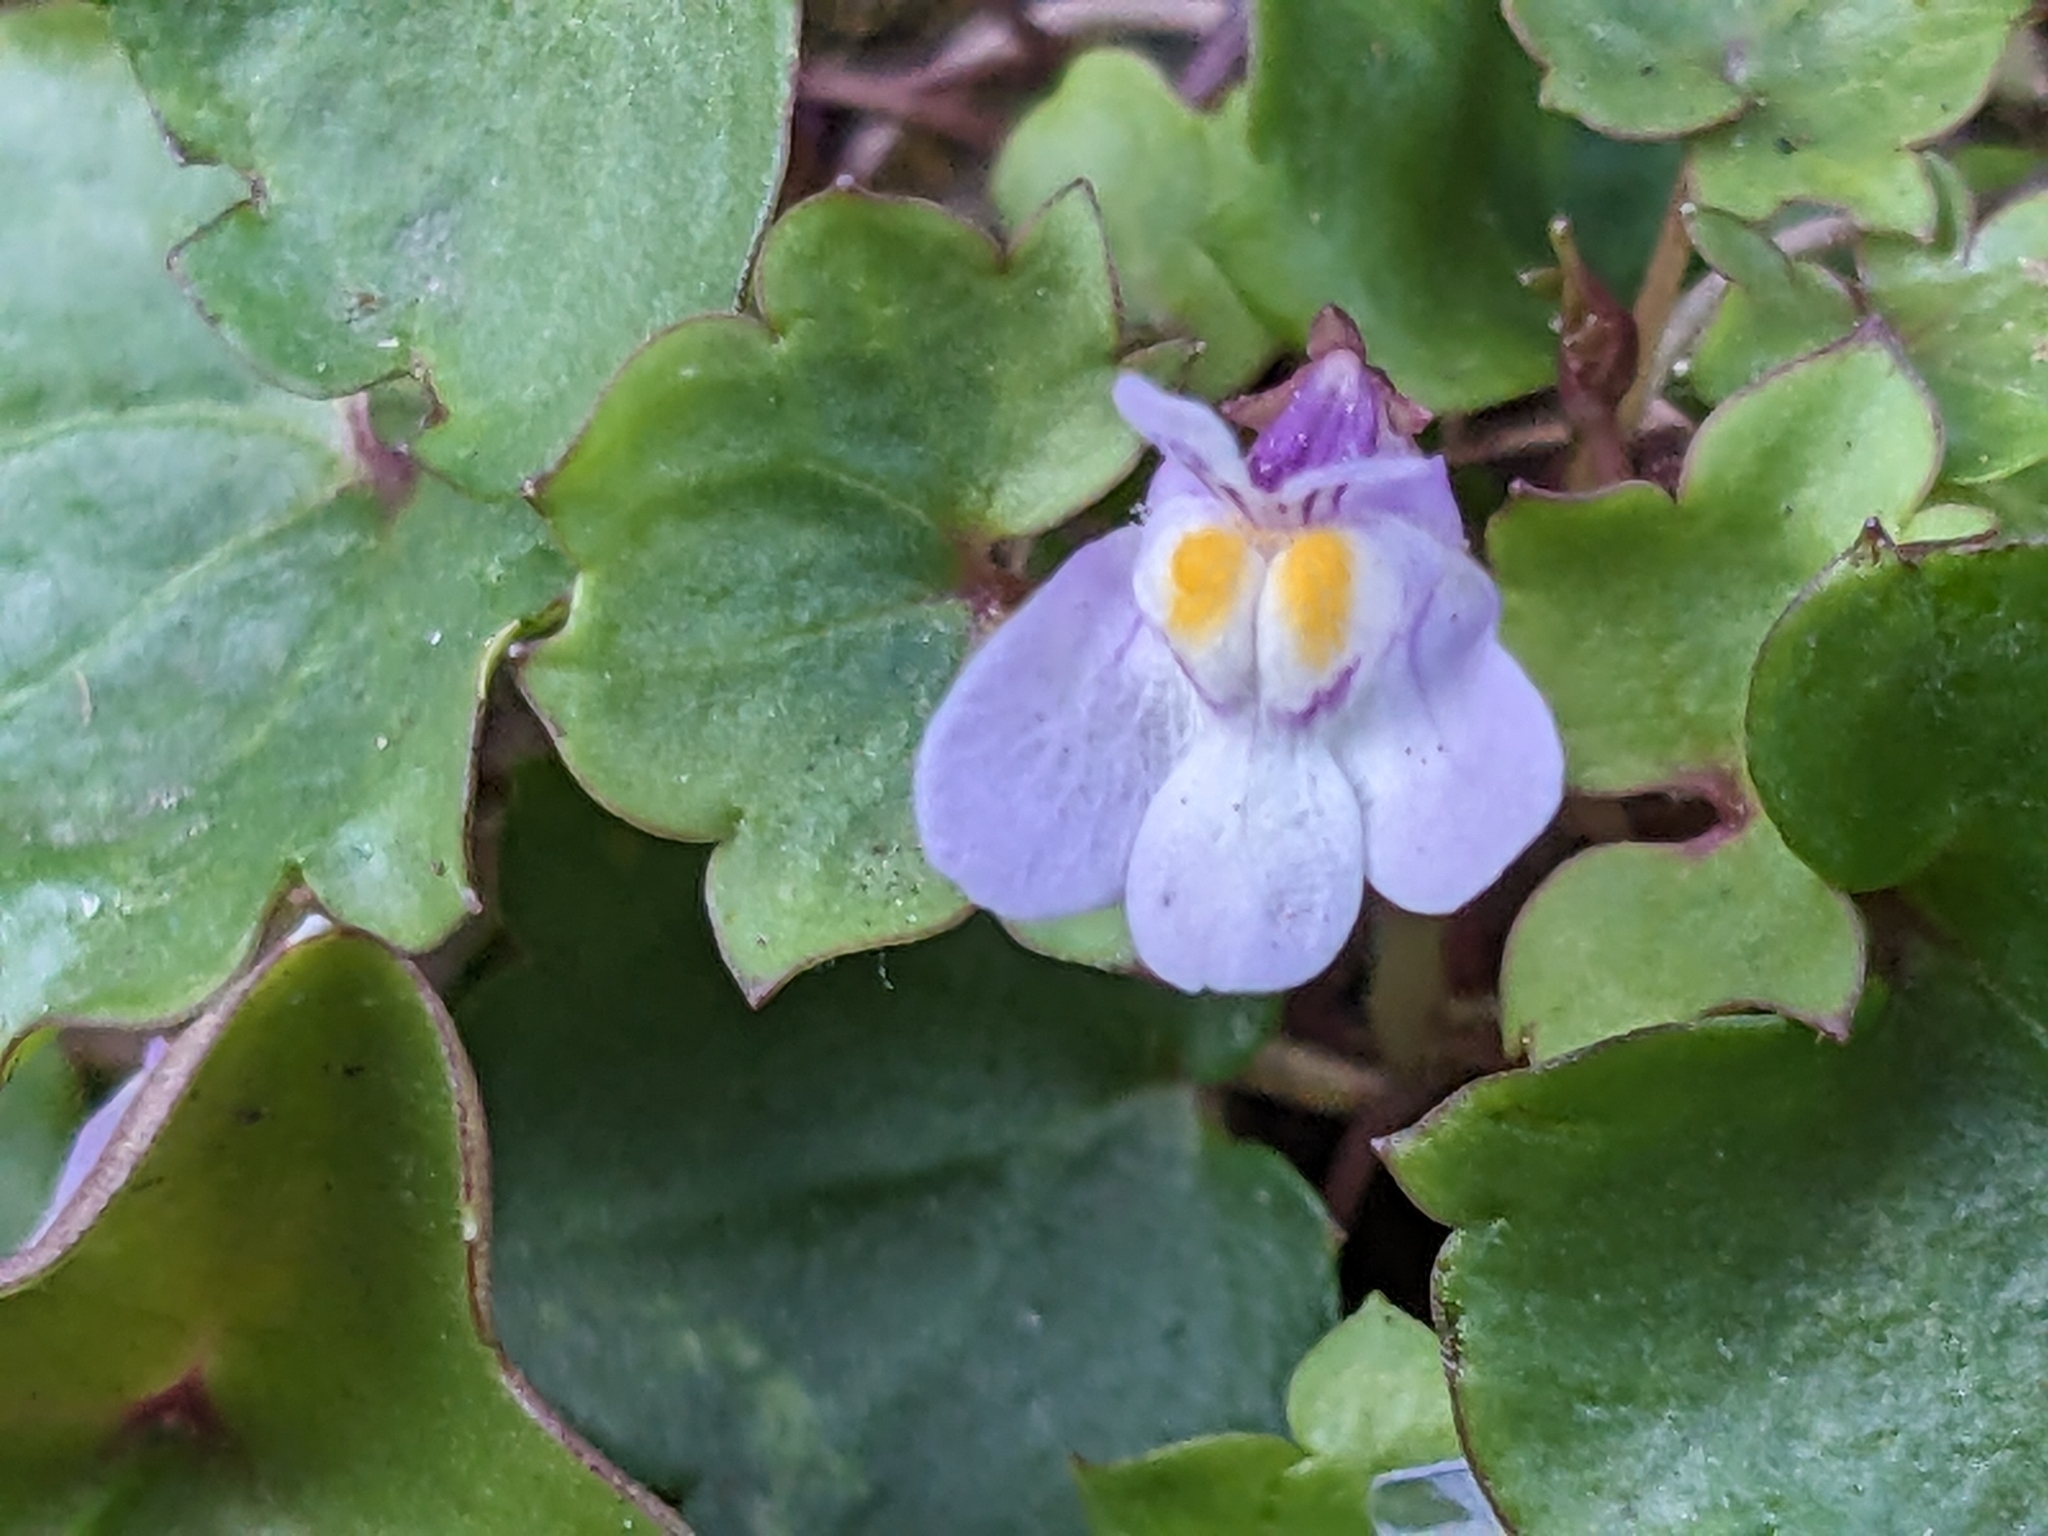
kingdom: Plantae
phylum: Tracheophyta
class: Magnoliopsida
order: Lamiales
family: Plantaginaceae
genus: Cymbalaria
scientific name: Cymbalaria muralis
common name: Ivy-leaved toadflax
